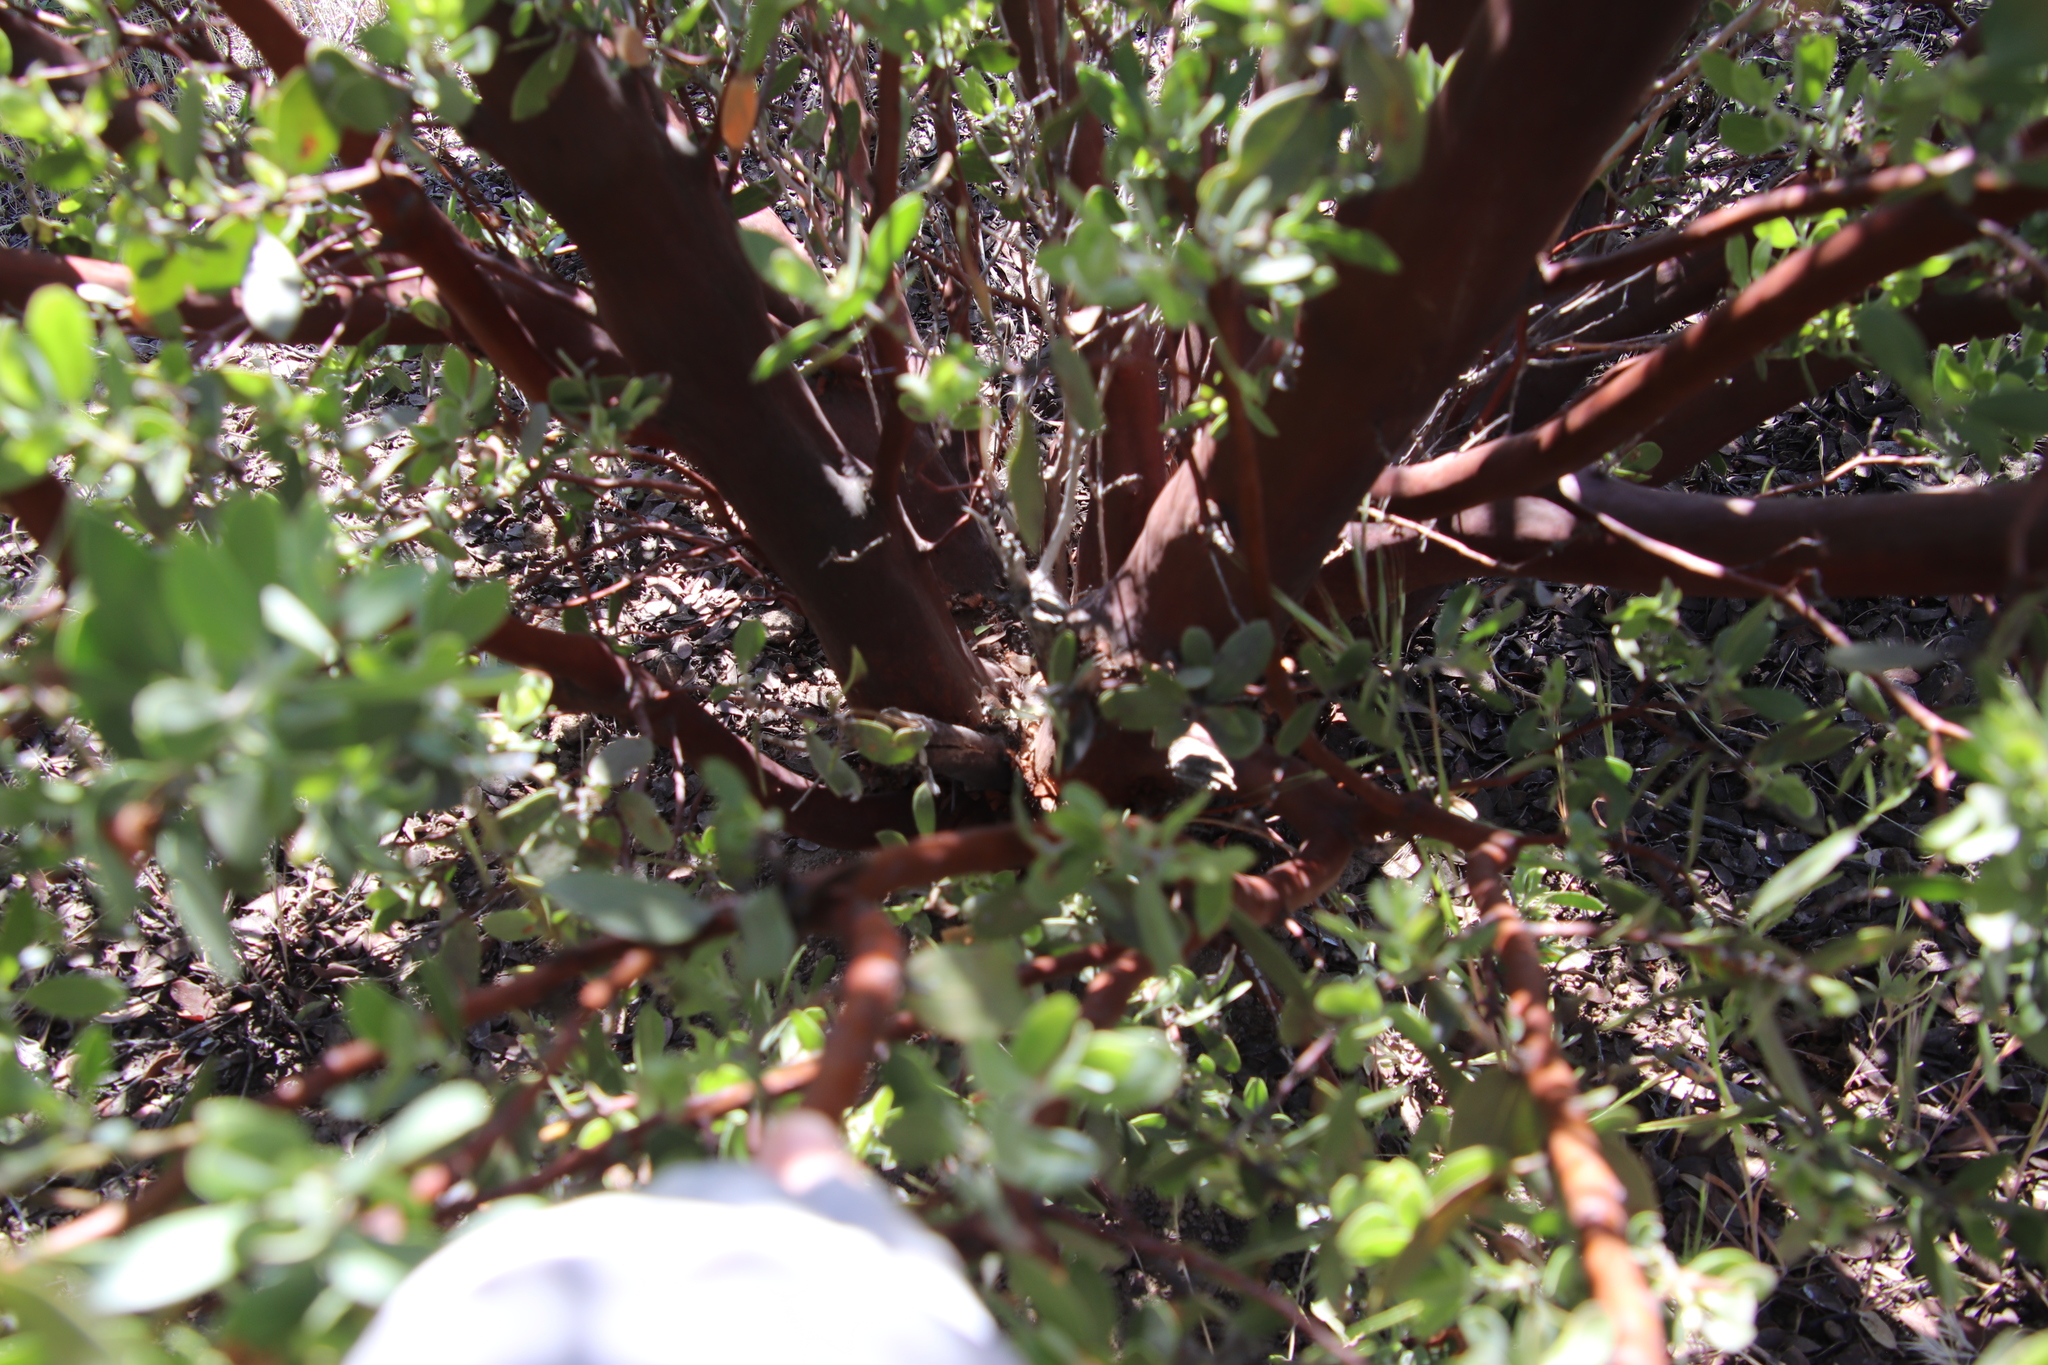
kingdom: Plantae
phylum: Tracheophyta
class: Magnoliopsida
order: Ericales
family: Ericaceae
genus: Arctostaphylos
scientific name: Arctostaphylos pungens
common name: Mexican manzanita
